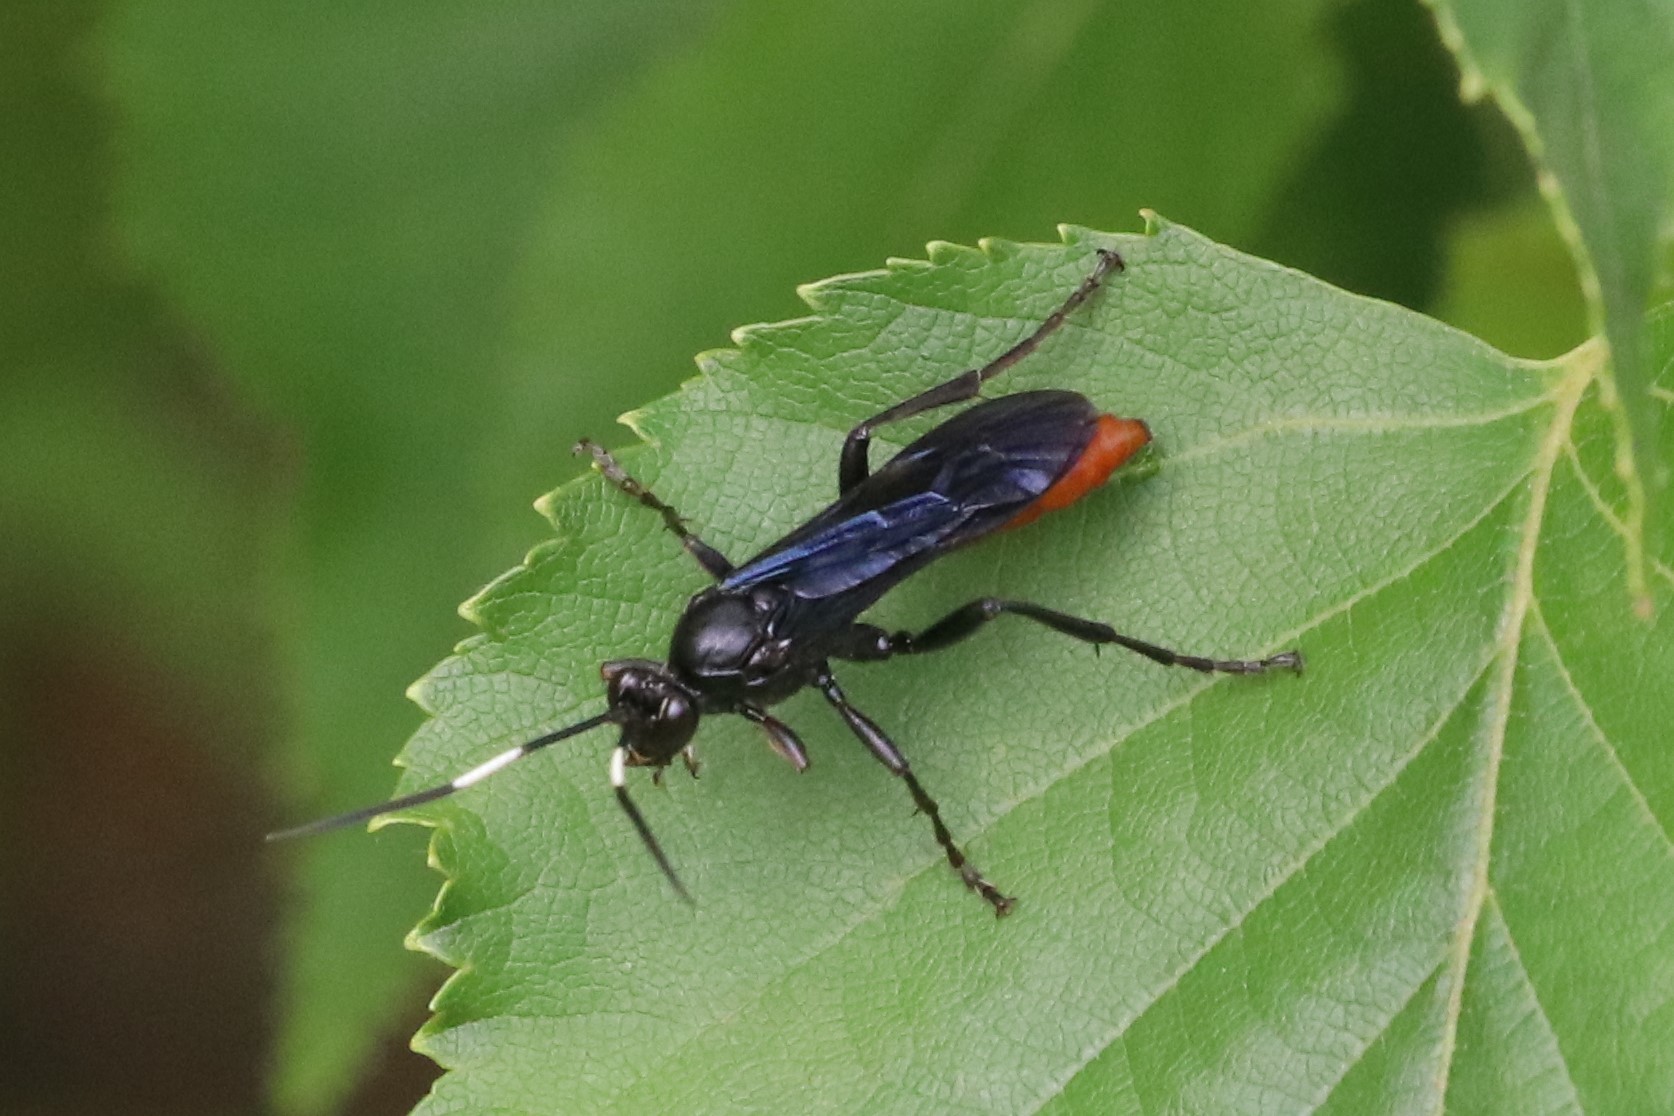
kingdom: Animalia
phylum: Arthropoda
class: Insecta
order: Hymenoptera
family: Ichneumonidae
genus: Protichneumon
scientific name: Protichneumon grandis
